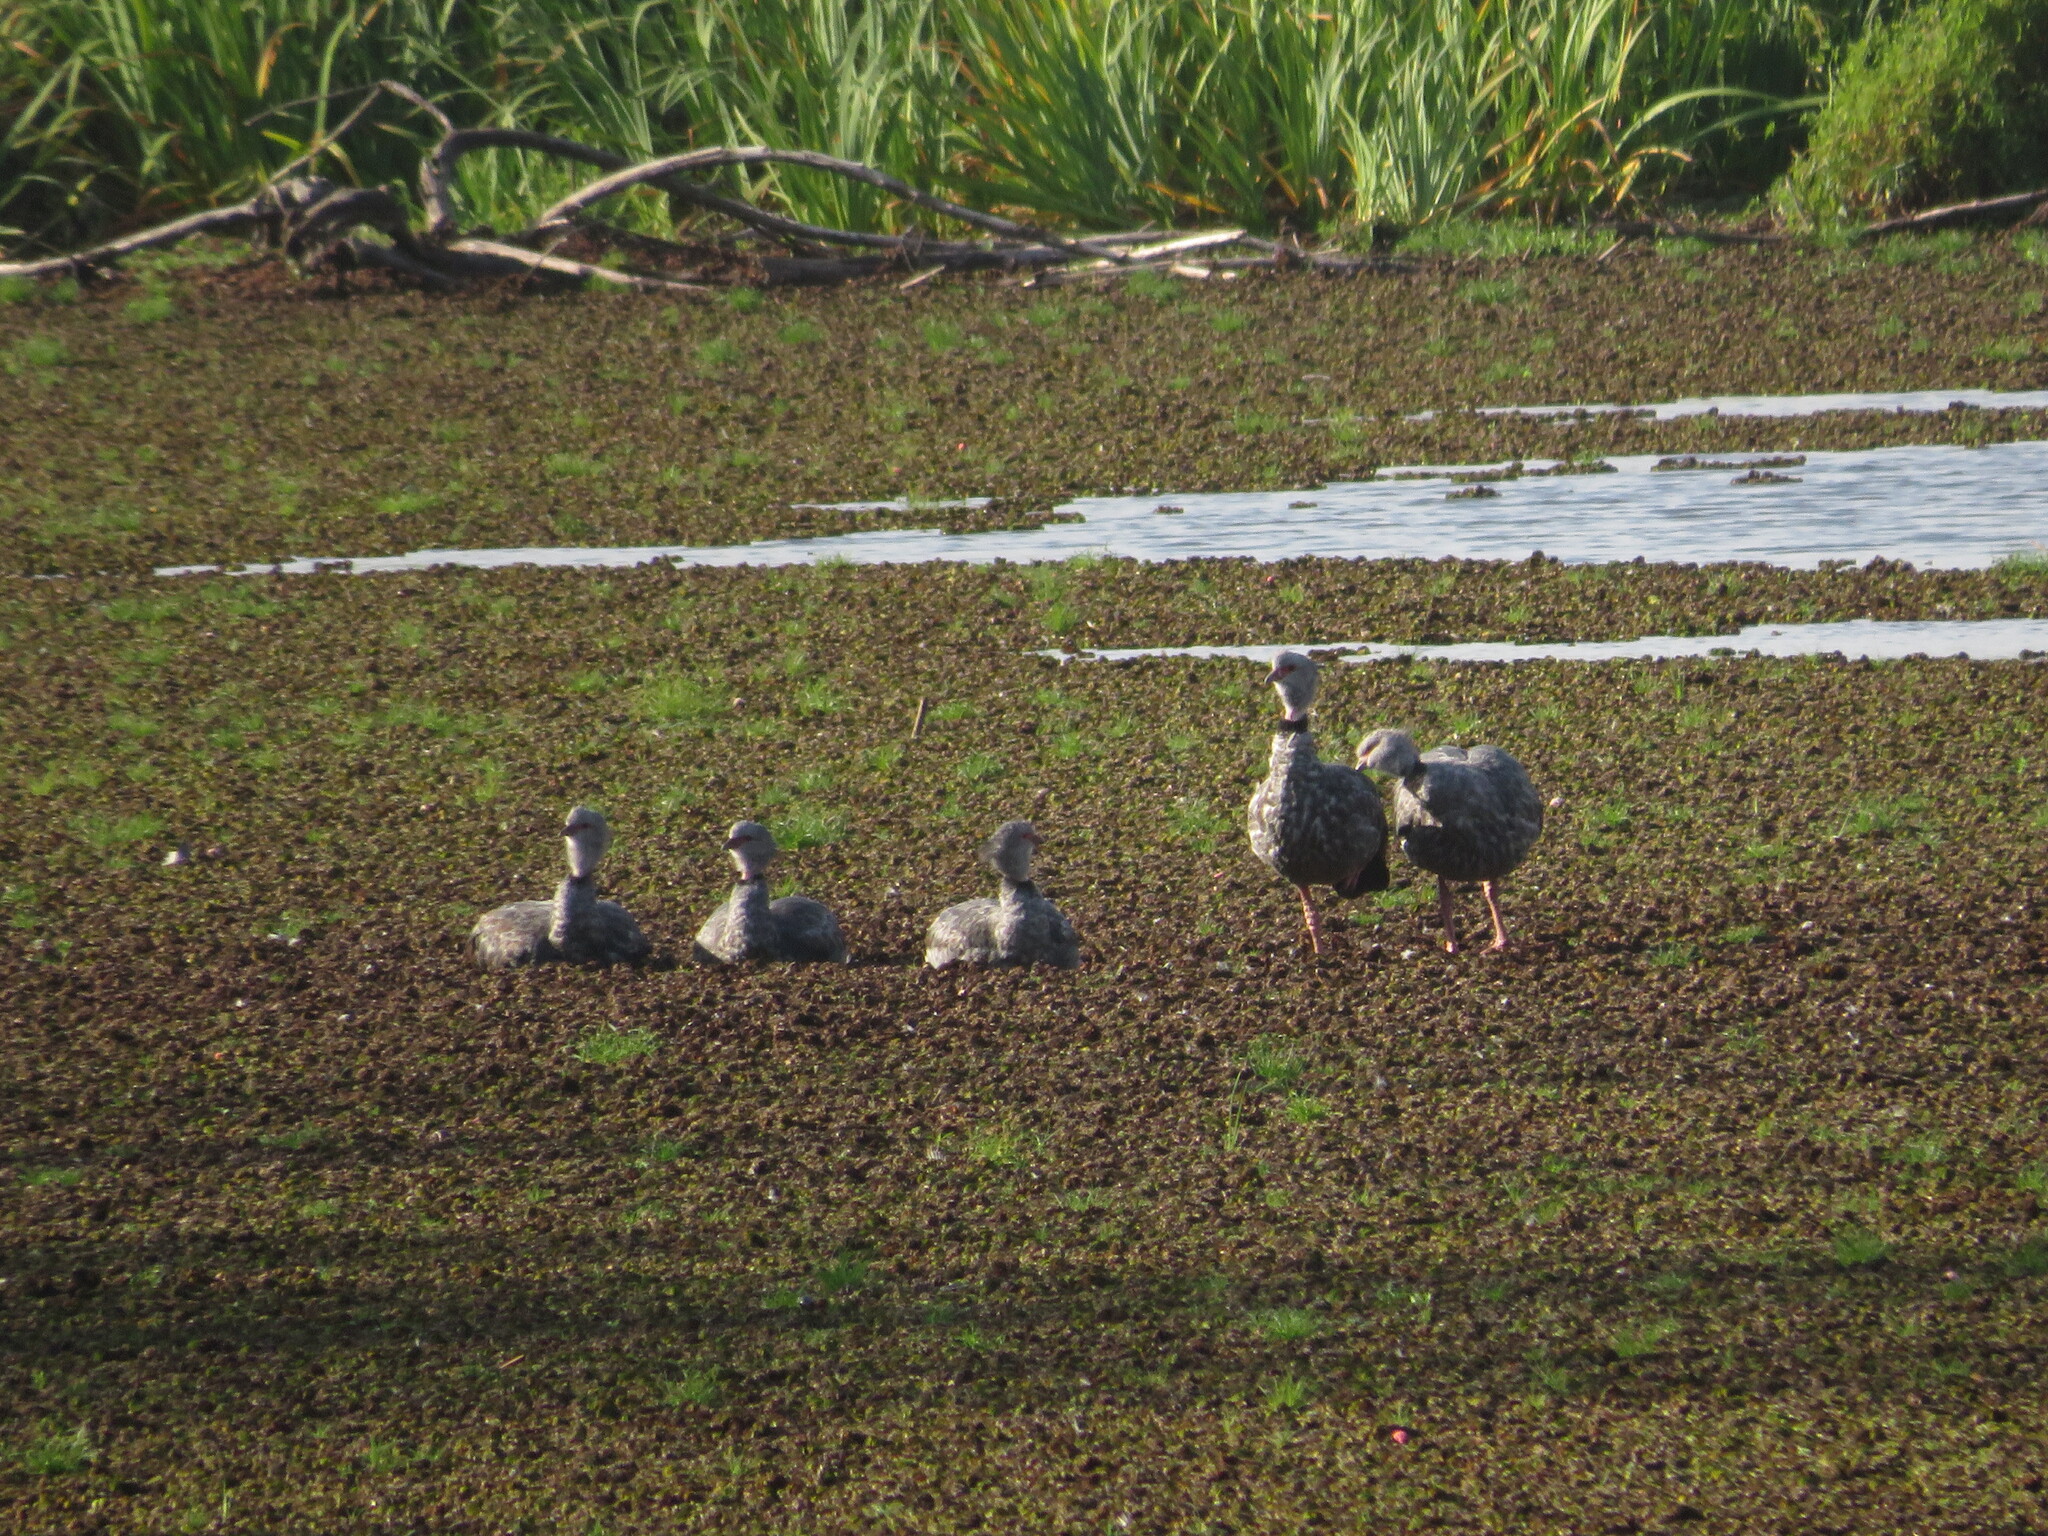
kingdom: Animalia
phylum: Chordata
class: Aves
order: Anseriformes
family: Anhimidae
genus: Chauna
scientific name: Chauna torquata
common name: Southern screamer
